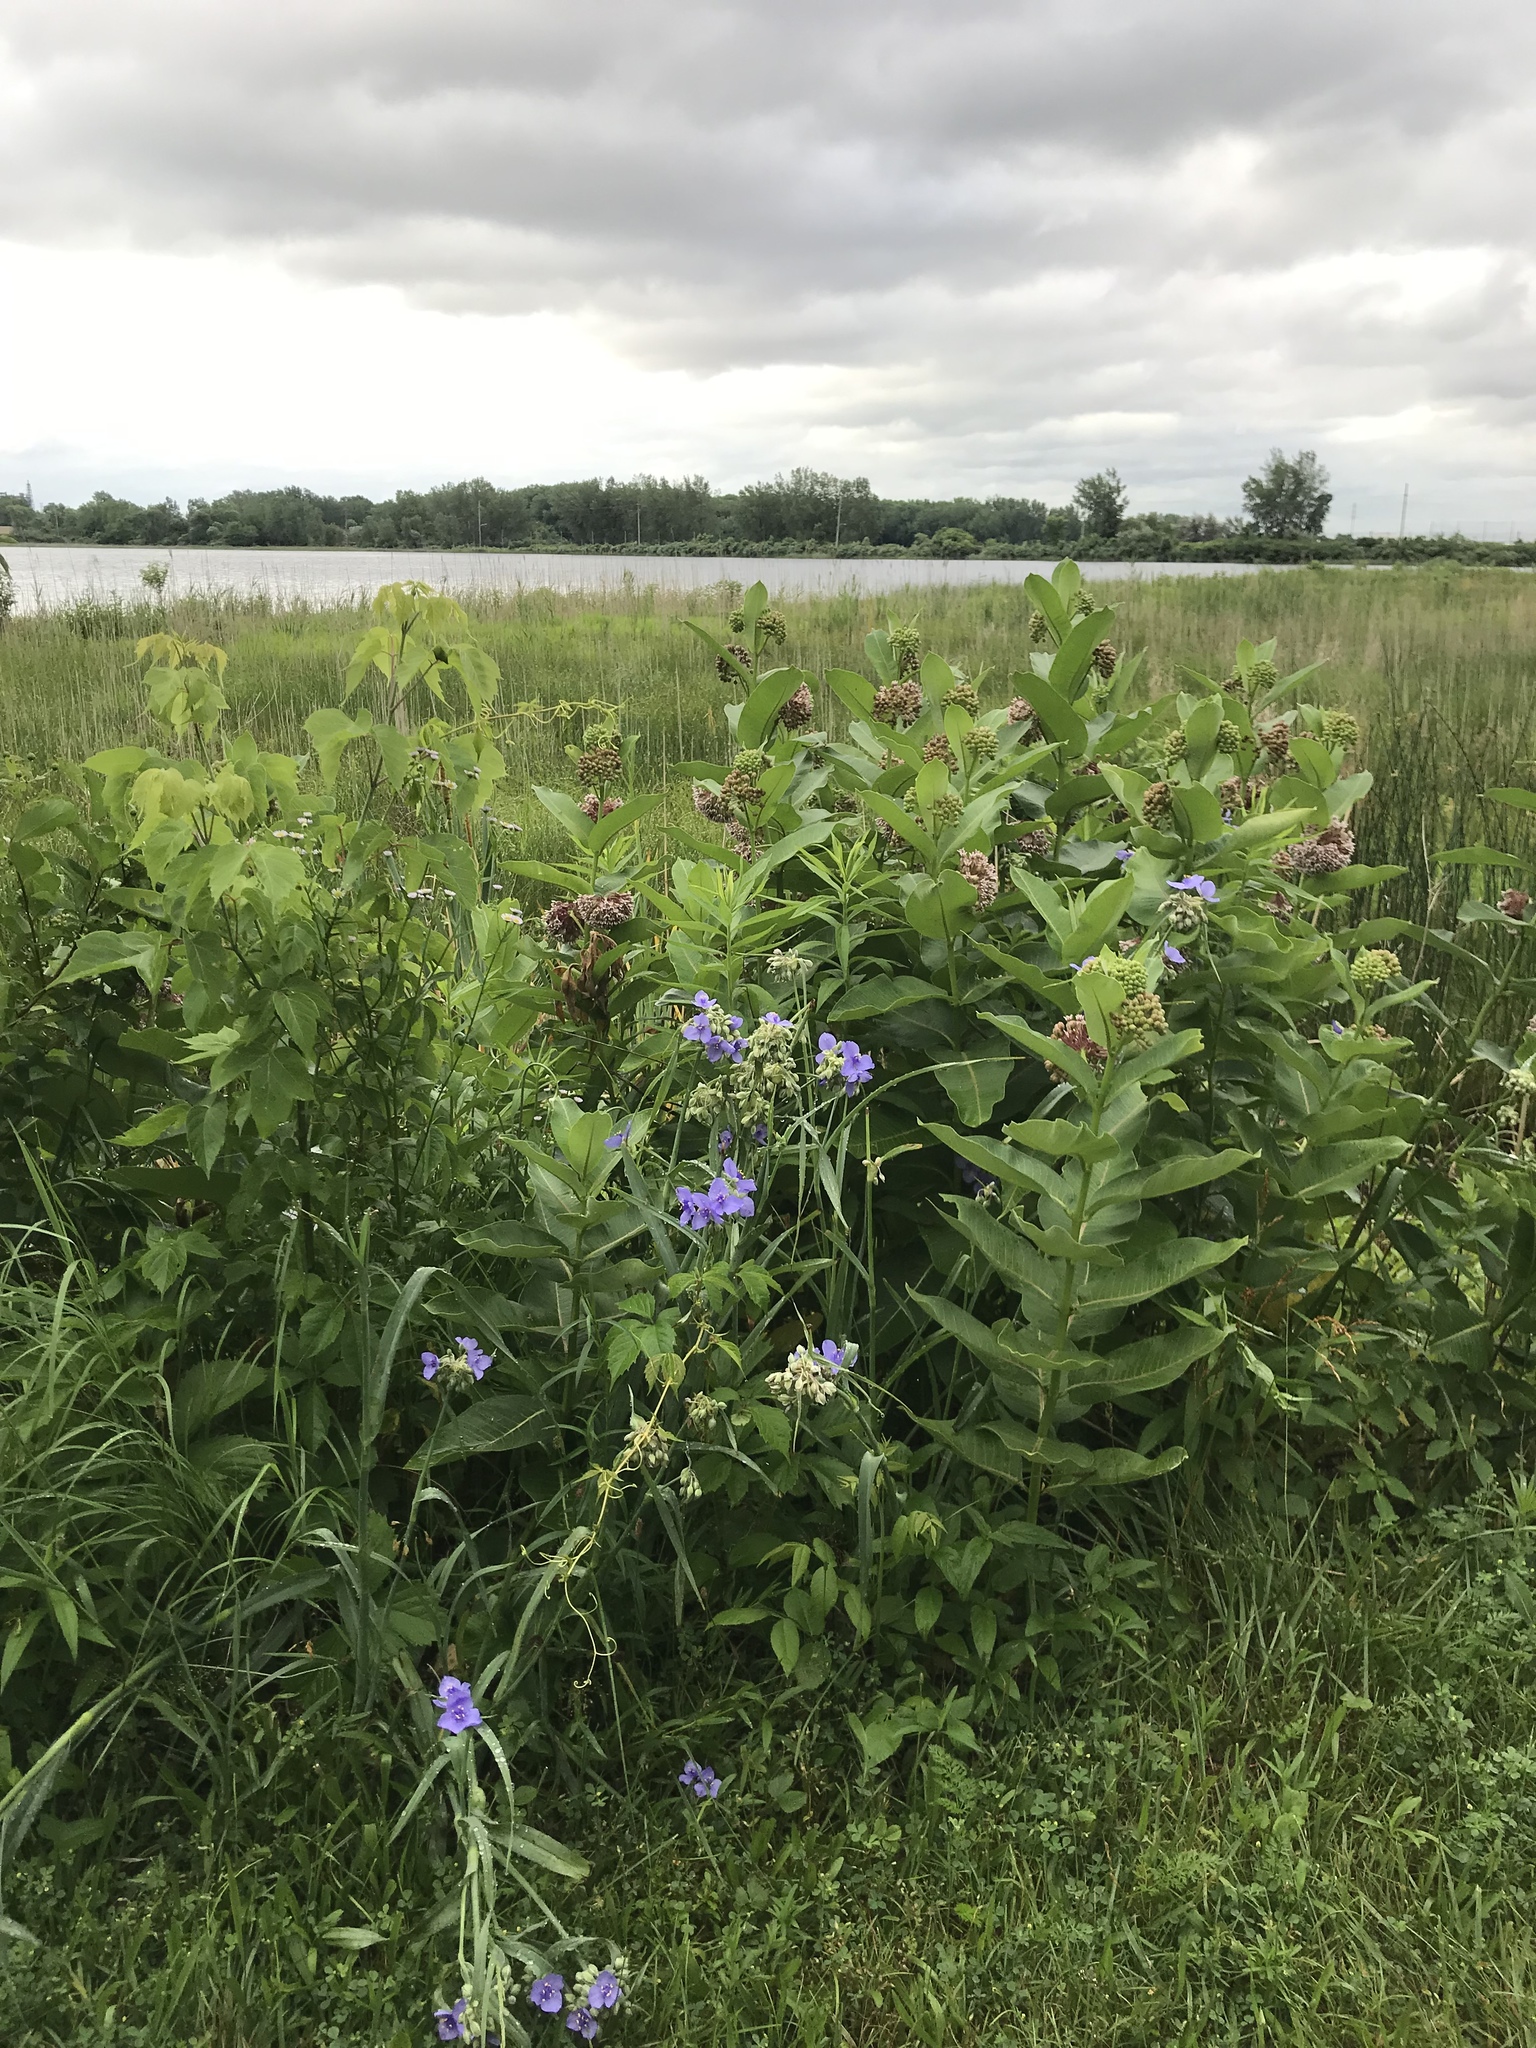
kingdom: Plantae
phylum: Tracheophyta
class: Liliopsida
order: Commelinales
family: Commelinaceae
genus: Tradescantia
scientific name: Tradescantia ohiensis
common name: Ohio spiderwort
